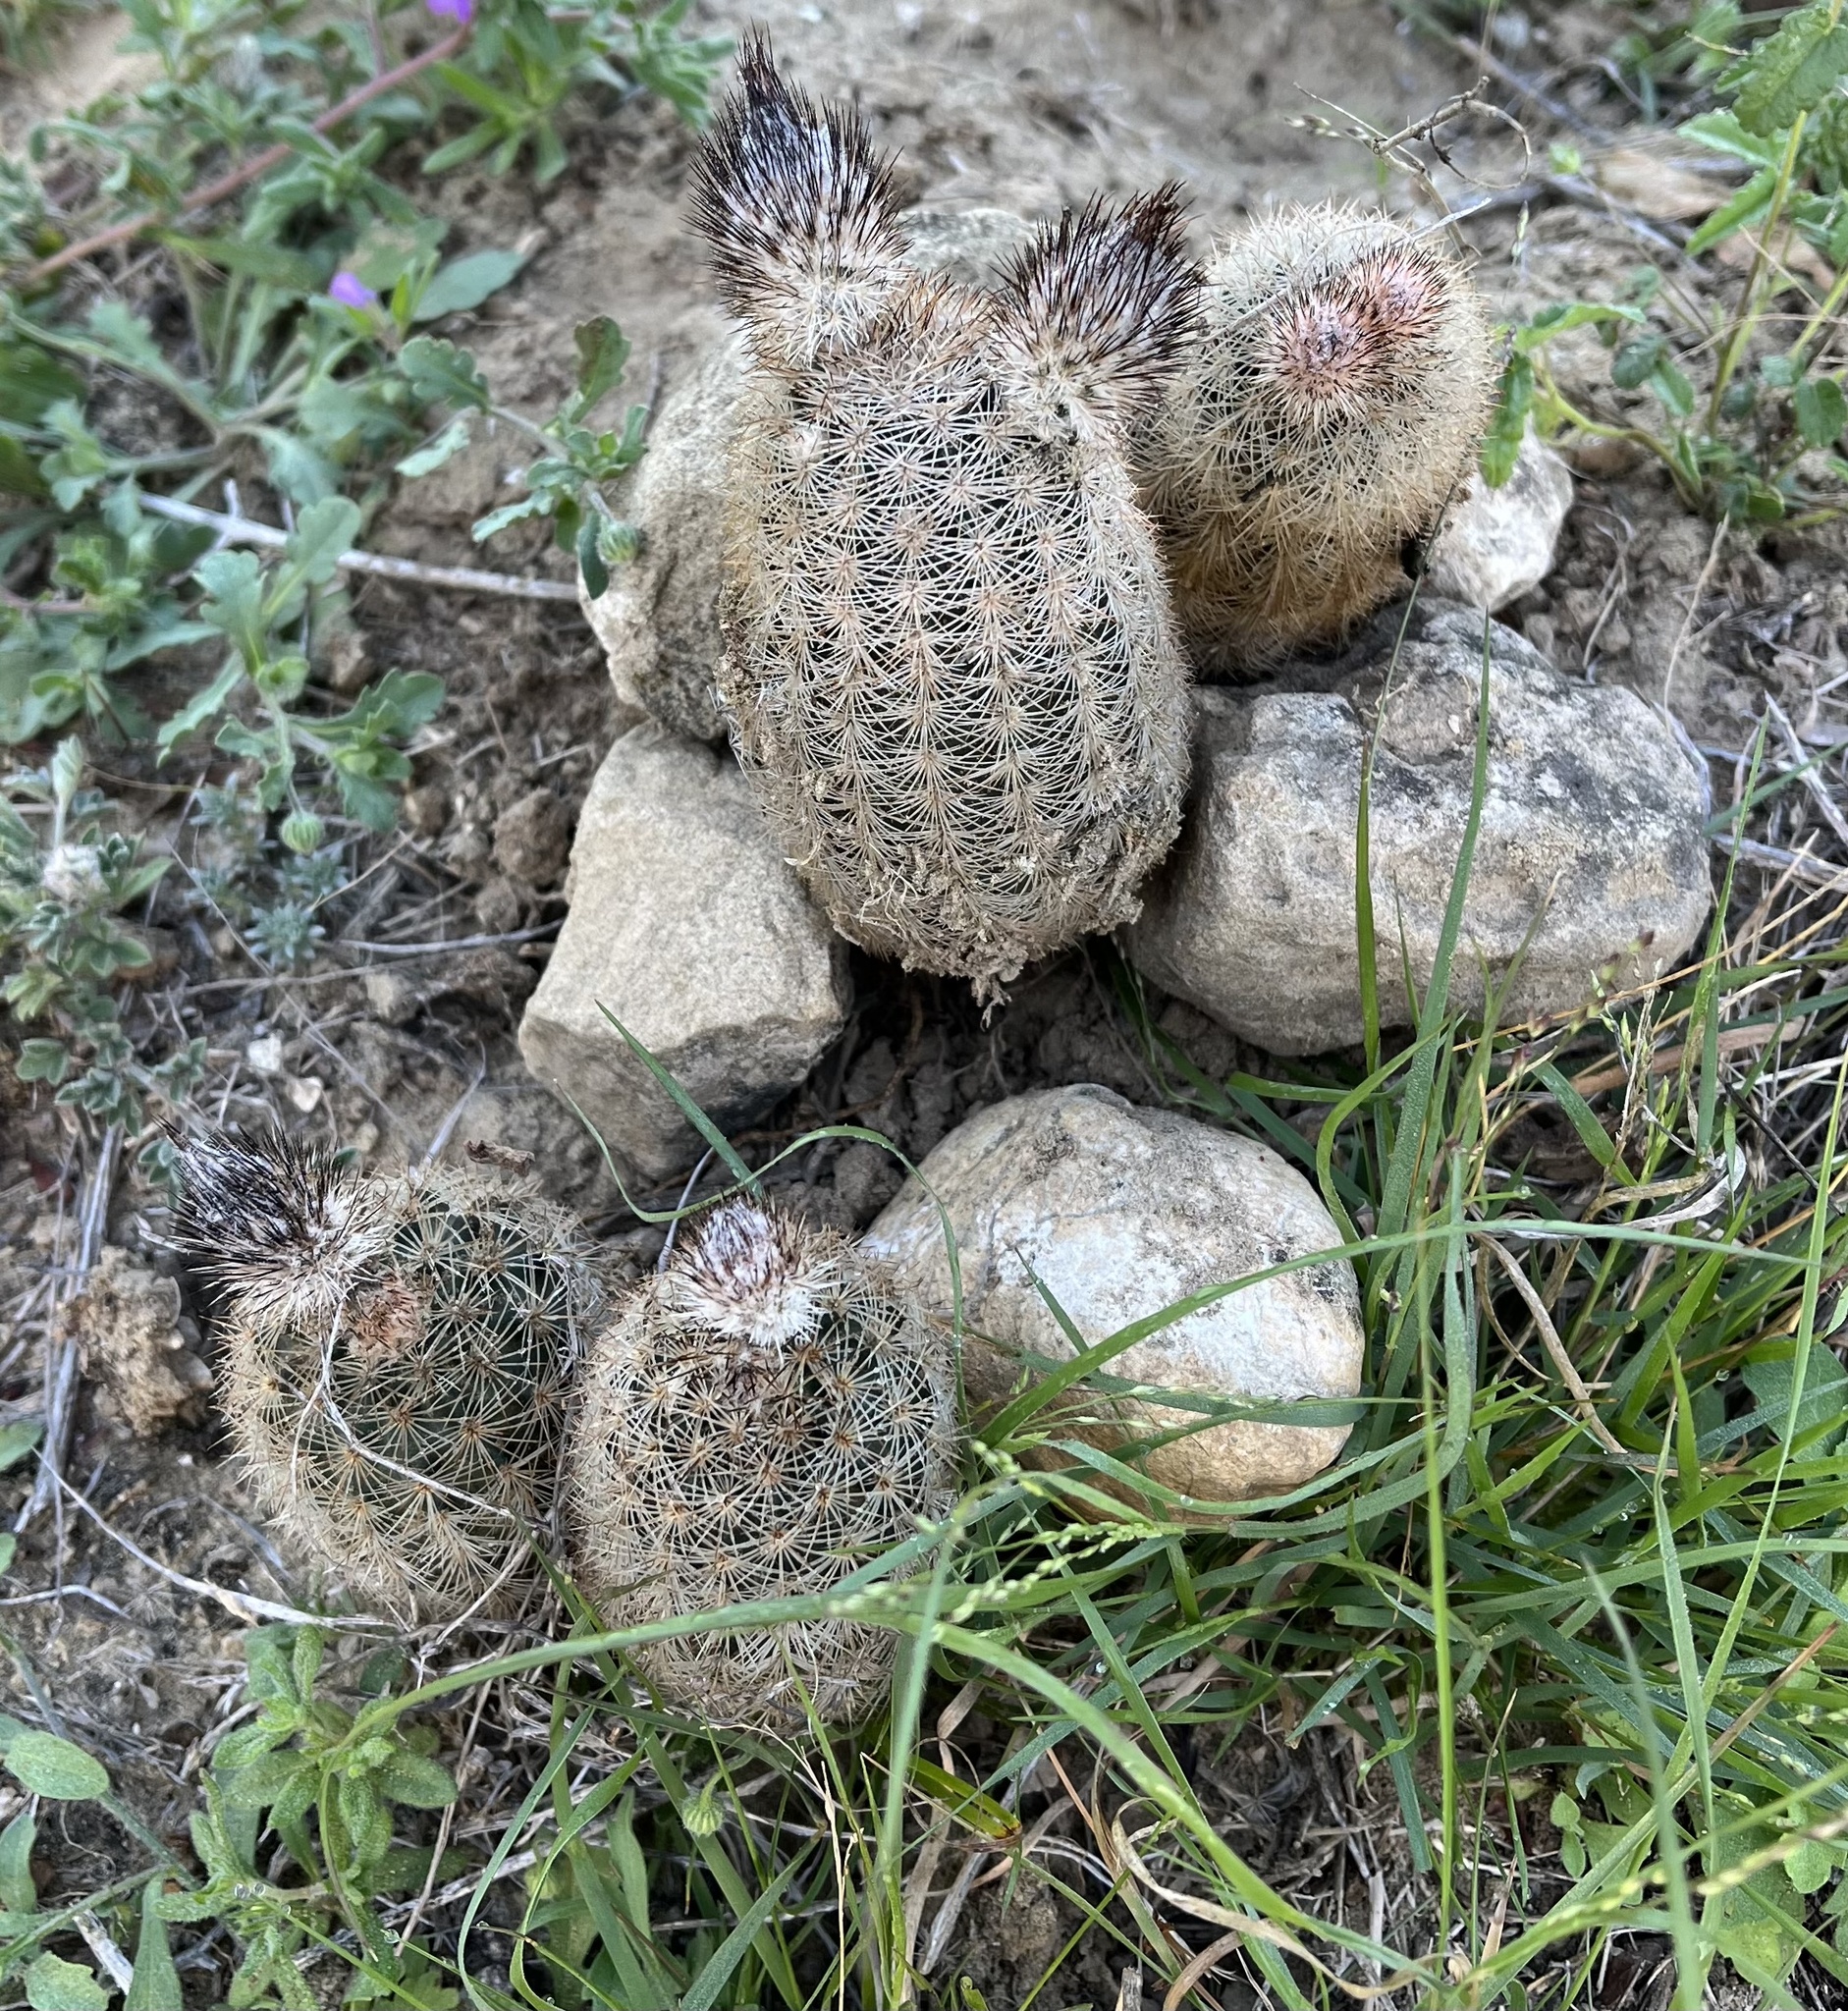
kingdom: Plantae
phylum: Tracheophyta
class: Magnoliopsida
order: Caryophyllales
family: Cactaceae
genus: Echinocereus
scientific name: Echinocereus reichenbachii
